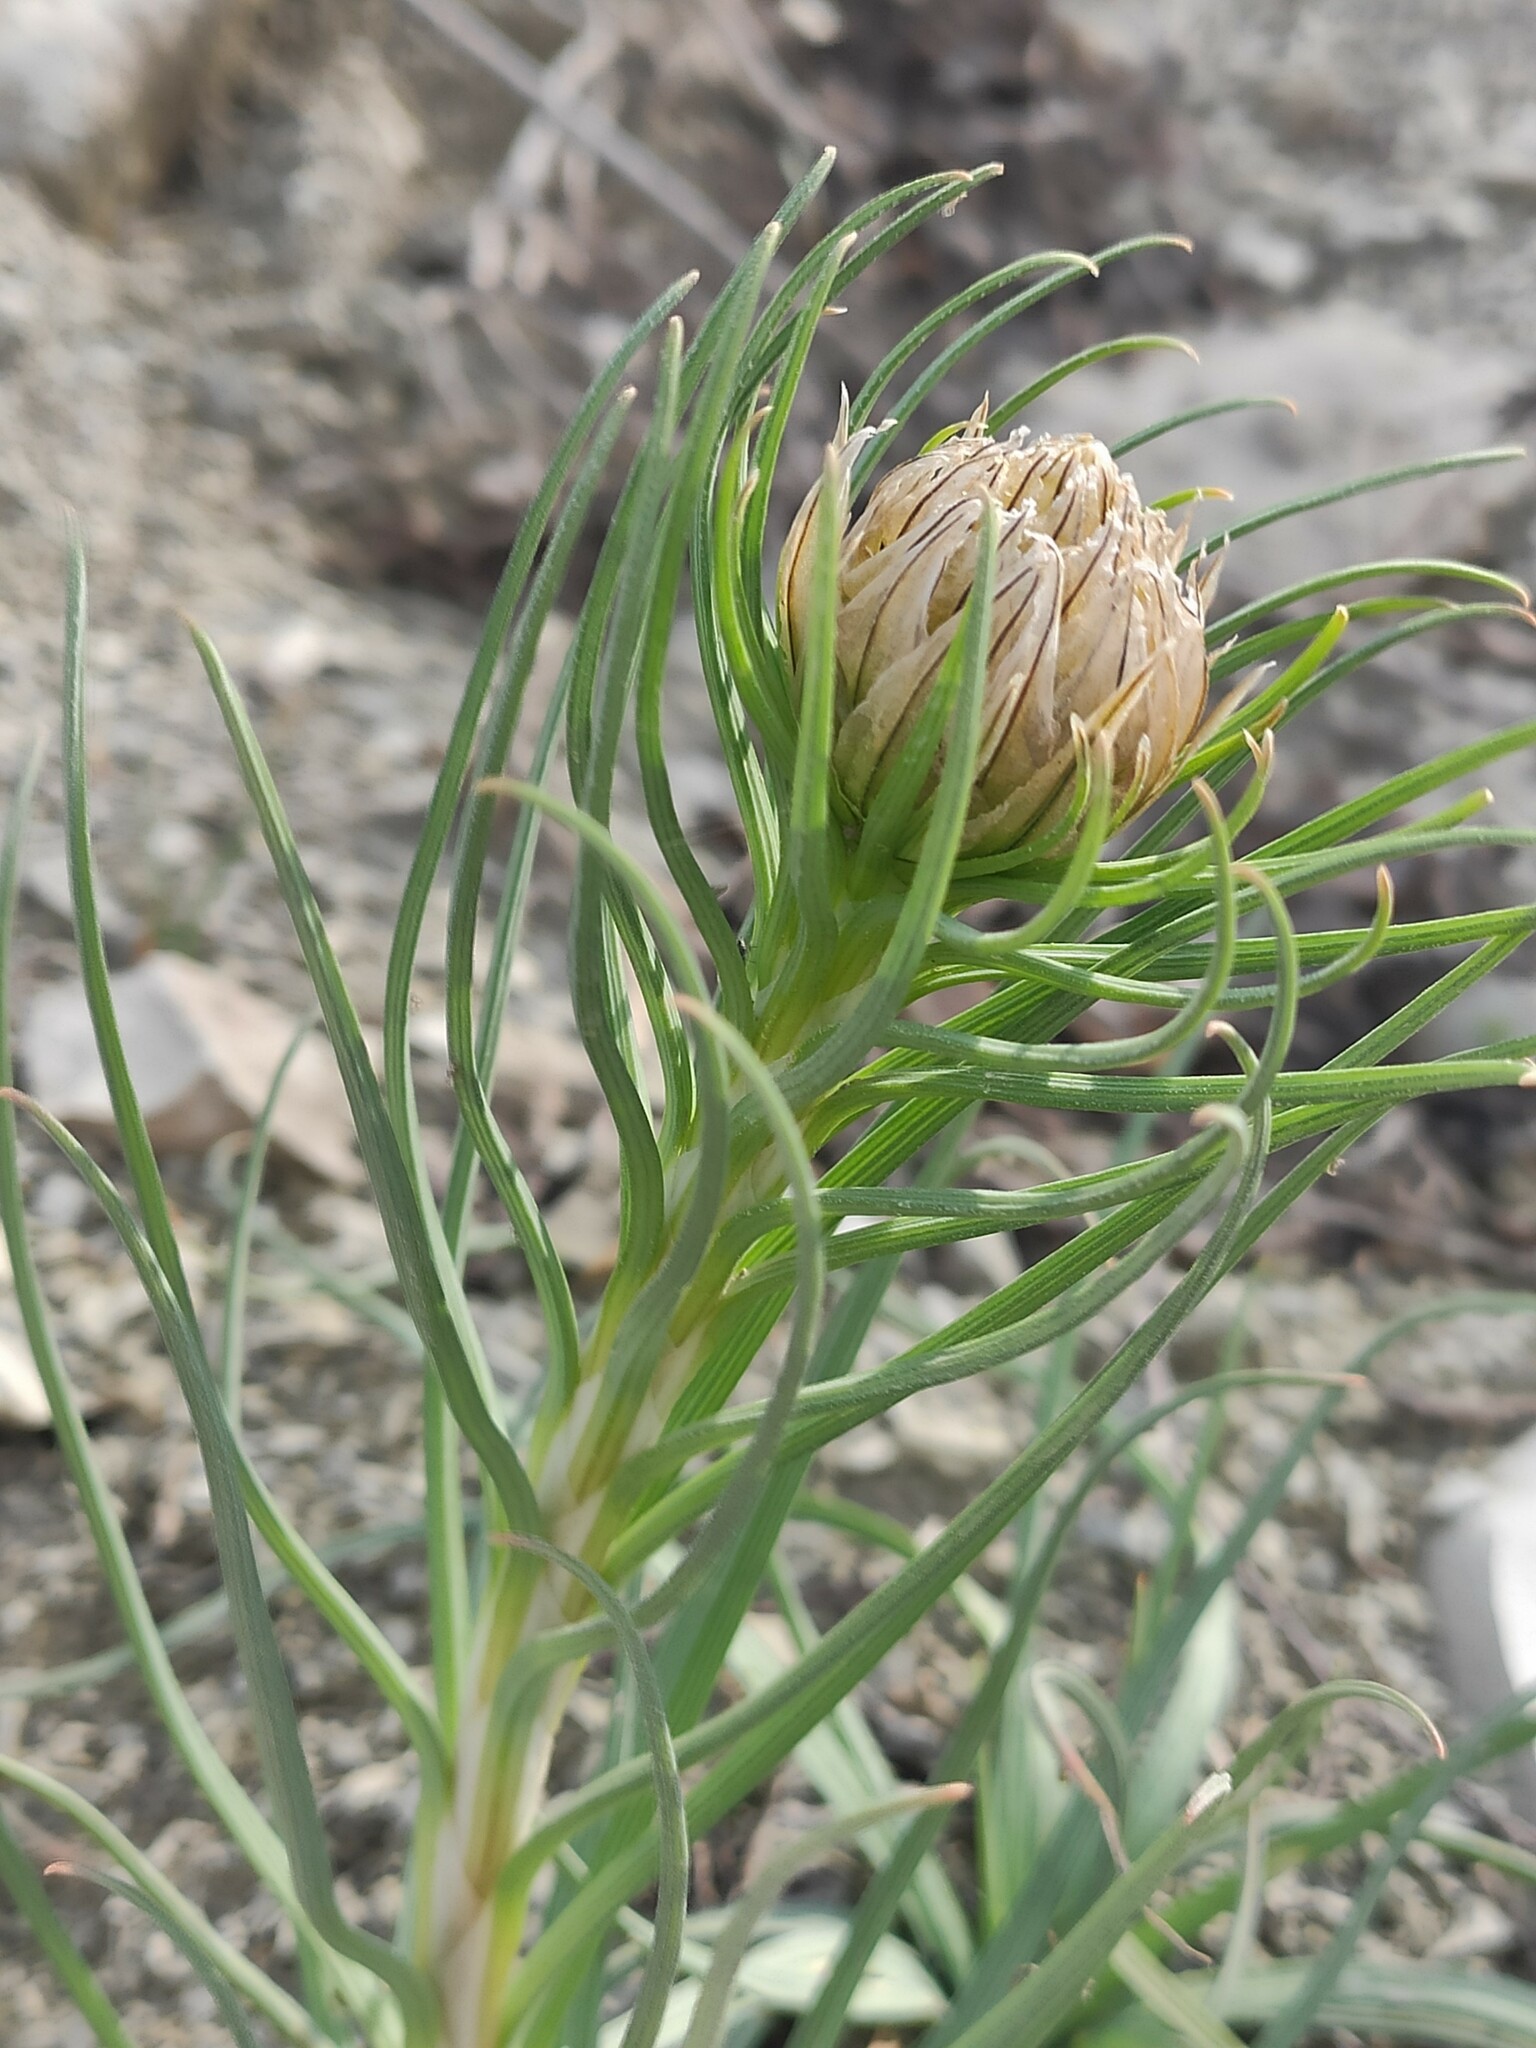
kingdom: Plantae
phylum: Tracheophyta
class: Liliopsida
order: Asparagales
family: Asphodelaceae
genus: Asphodeline
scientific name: Asphodeline taurica
